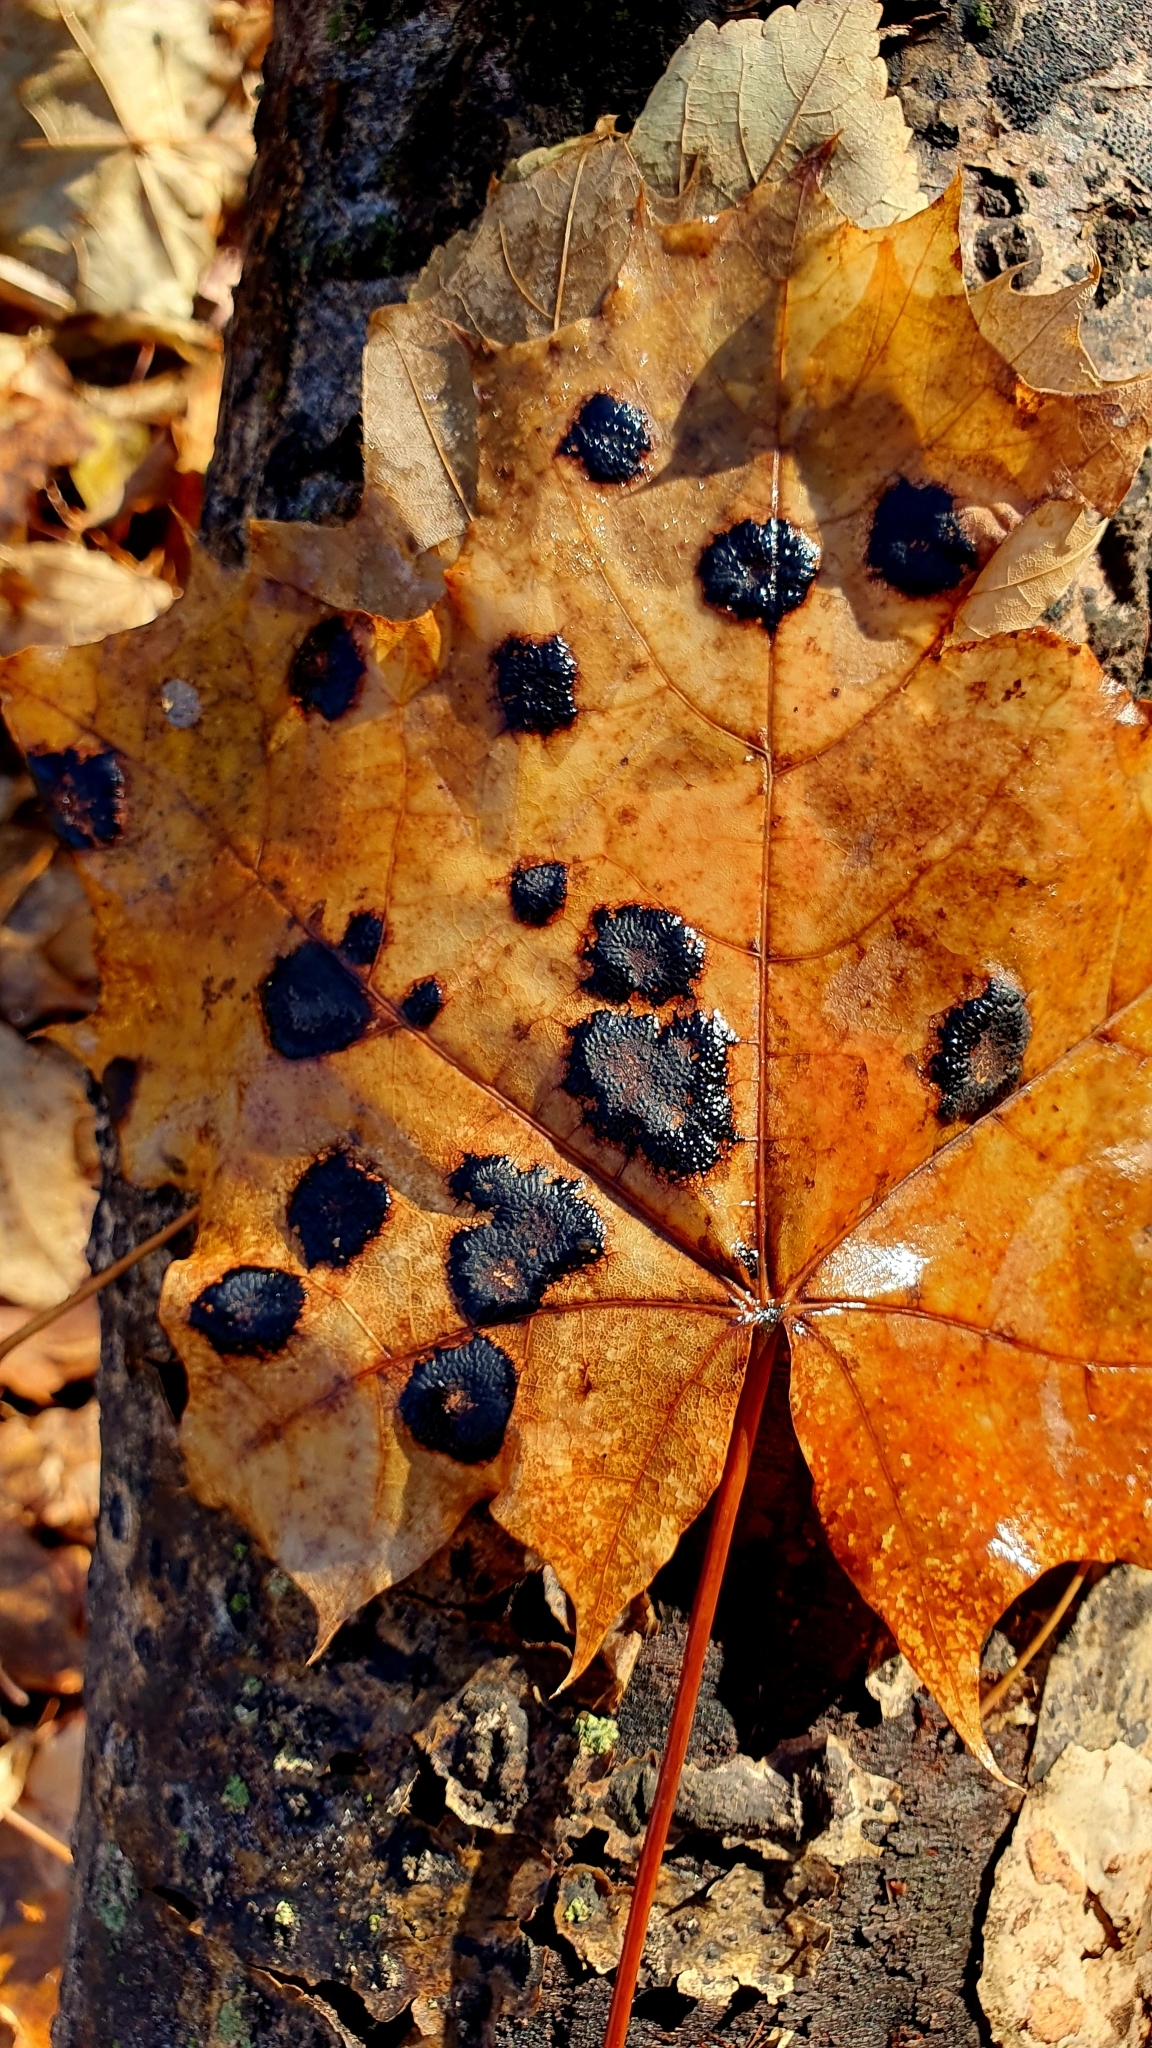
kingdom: Fungi
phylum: Ascomycota
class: Leotiomycetes
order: Rhytismatales
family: Rhytismataceae
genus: Rhytisma
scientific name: Rhytisma acerinum
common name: European tar spot
